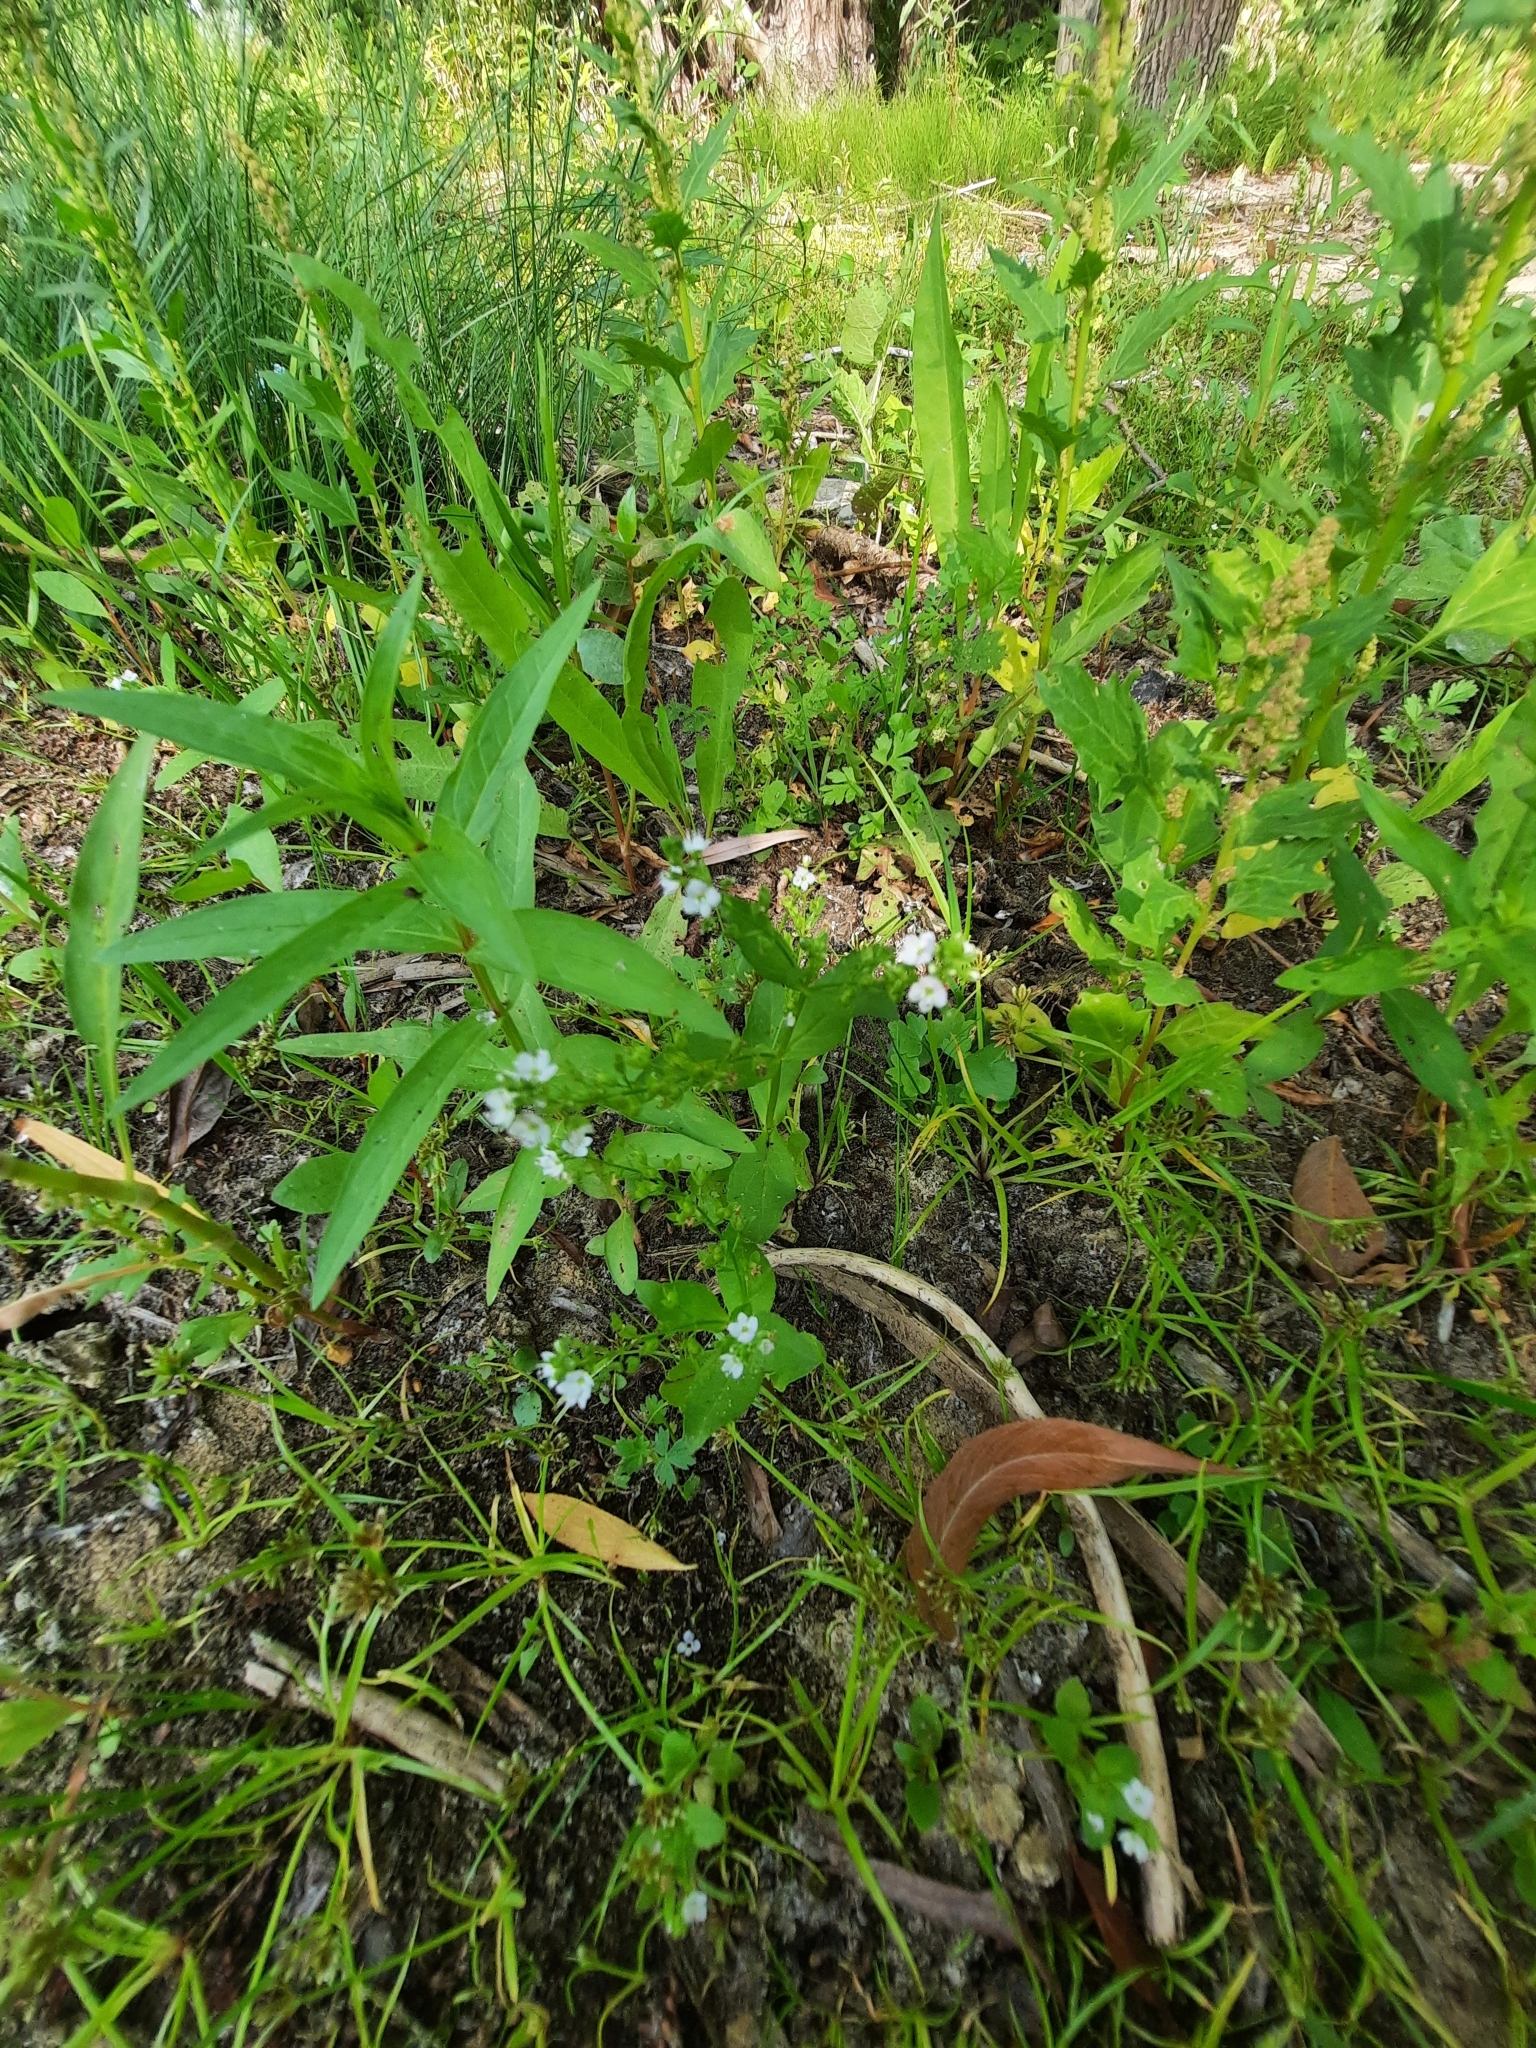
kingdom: Plantae
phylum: Tracheophyta
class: Magnoliopsida
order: Lamiales
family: Plantaginaceae
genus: Veronica
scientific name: Veronica anagallis-aquatica
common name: Water speedwell
